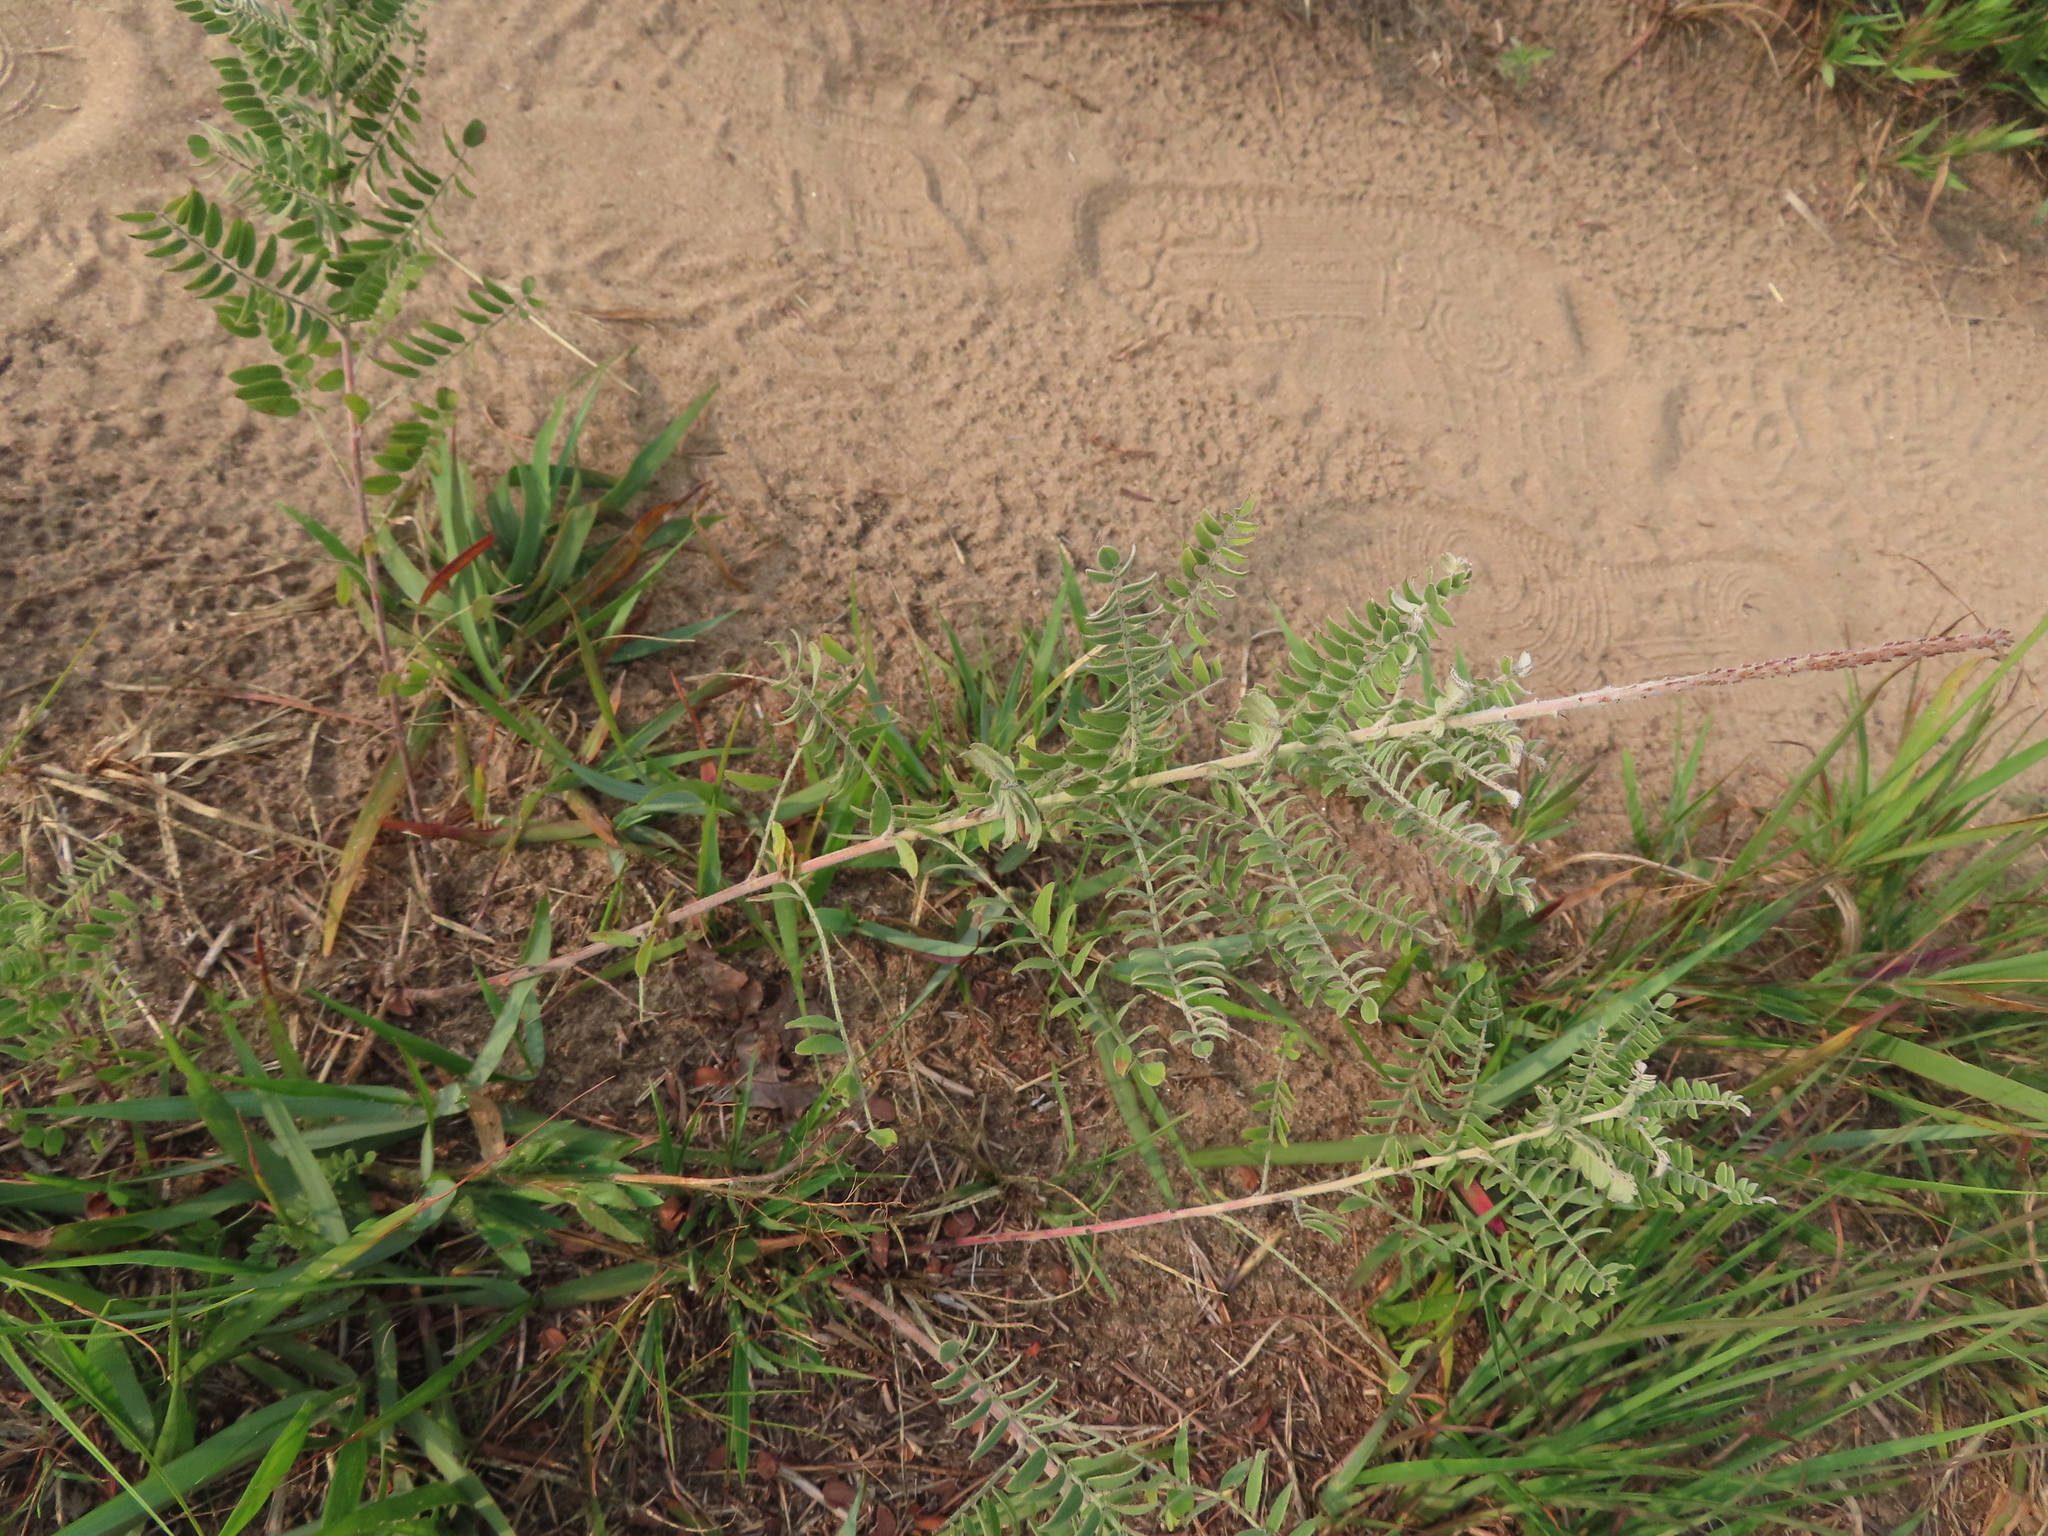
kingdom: Plantae
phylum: Tracheophyta
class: Magnoliopsida
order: Fabales
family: Fabaceae
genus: Amorpha
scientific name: Amorpha canescens
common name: Leadplant
